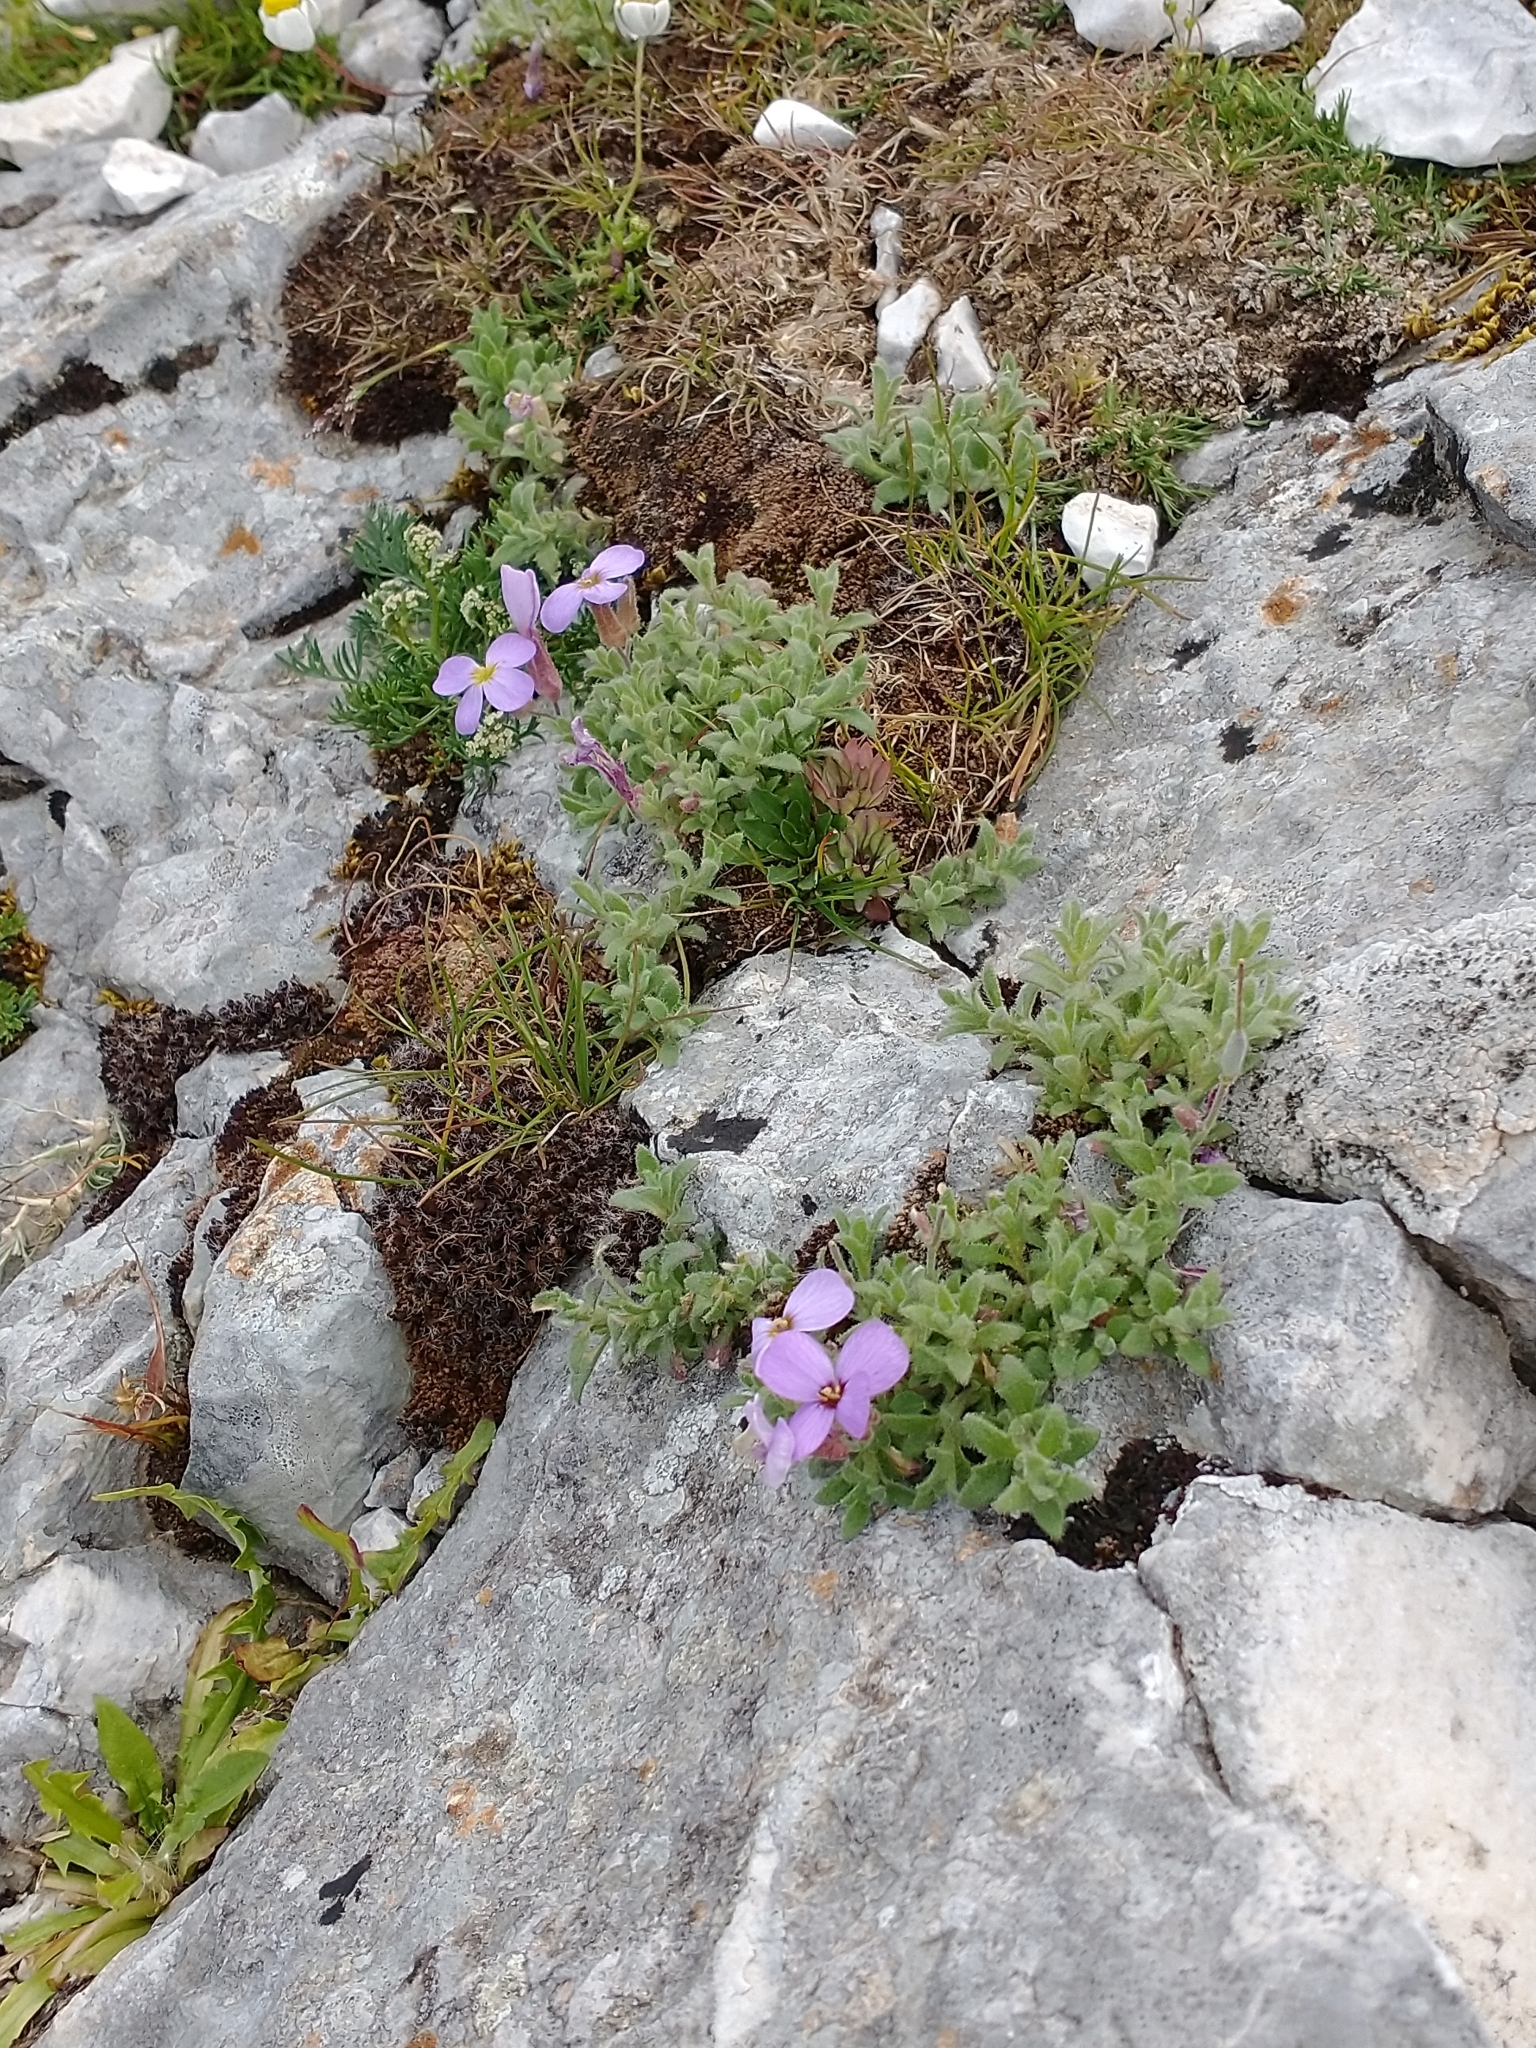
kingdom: Plantae
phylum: Tracheophyta
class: Magnoliopsida
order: Brassicales
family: Brassicaceae
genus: Aubrieta
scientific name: Aubrieta deltoidea
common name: Aubretia
